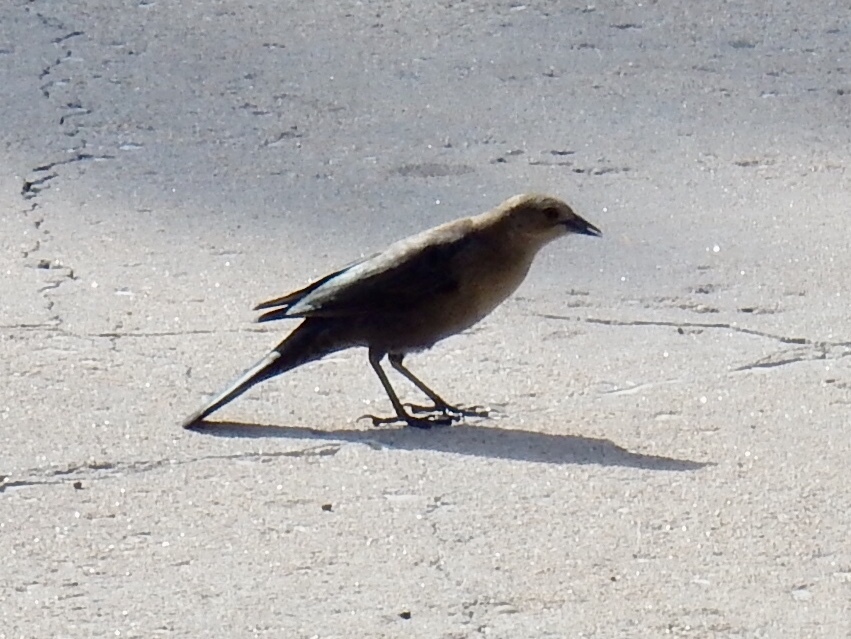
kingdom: Animalia
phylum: Chordata
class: Aves
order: Passeriformes
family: Icteridae
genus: Euphagus
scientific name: Euphagus cyanocephalus
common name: Brewer's blackbird
